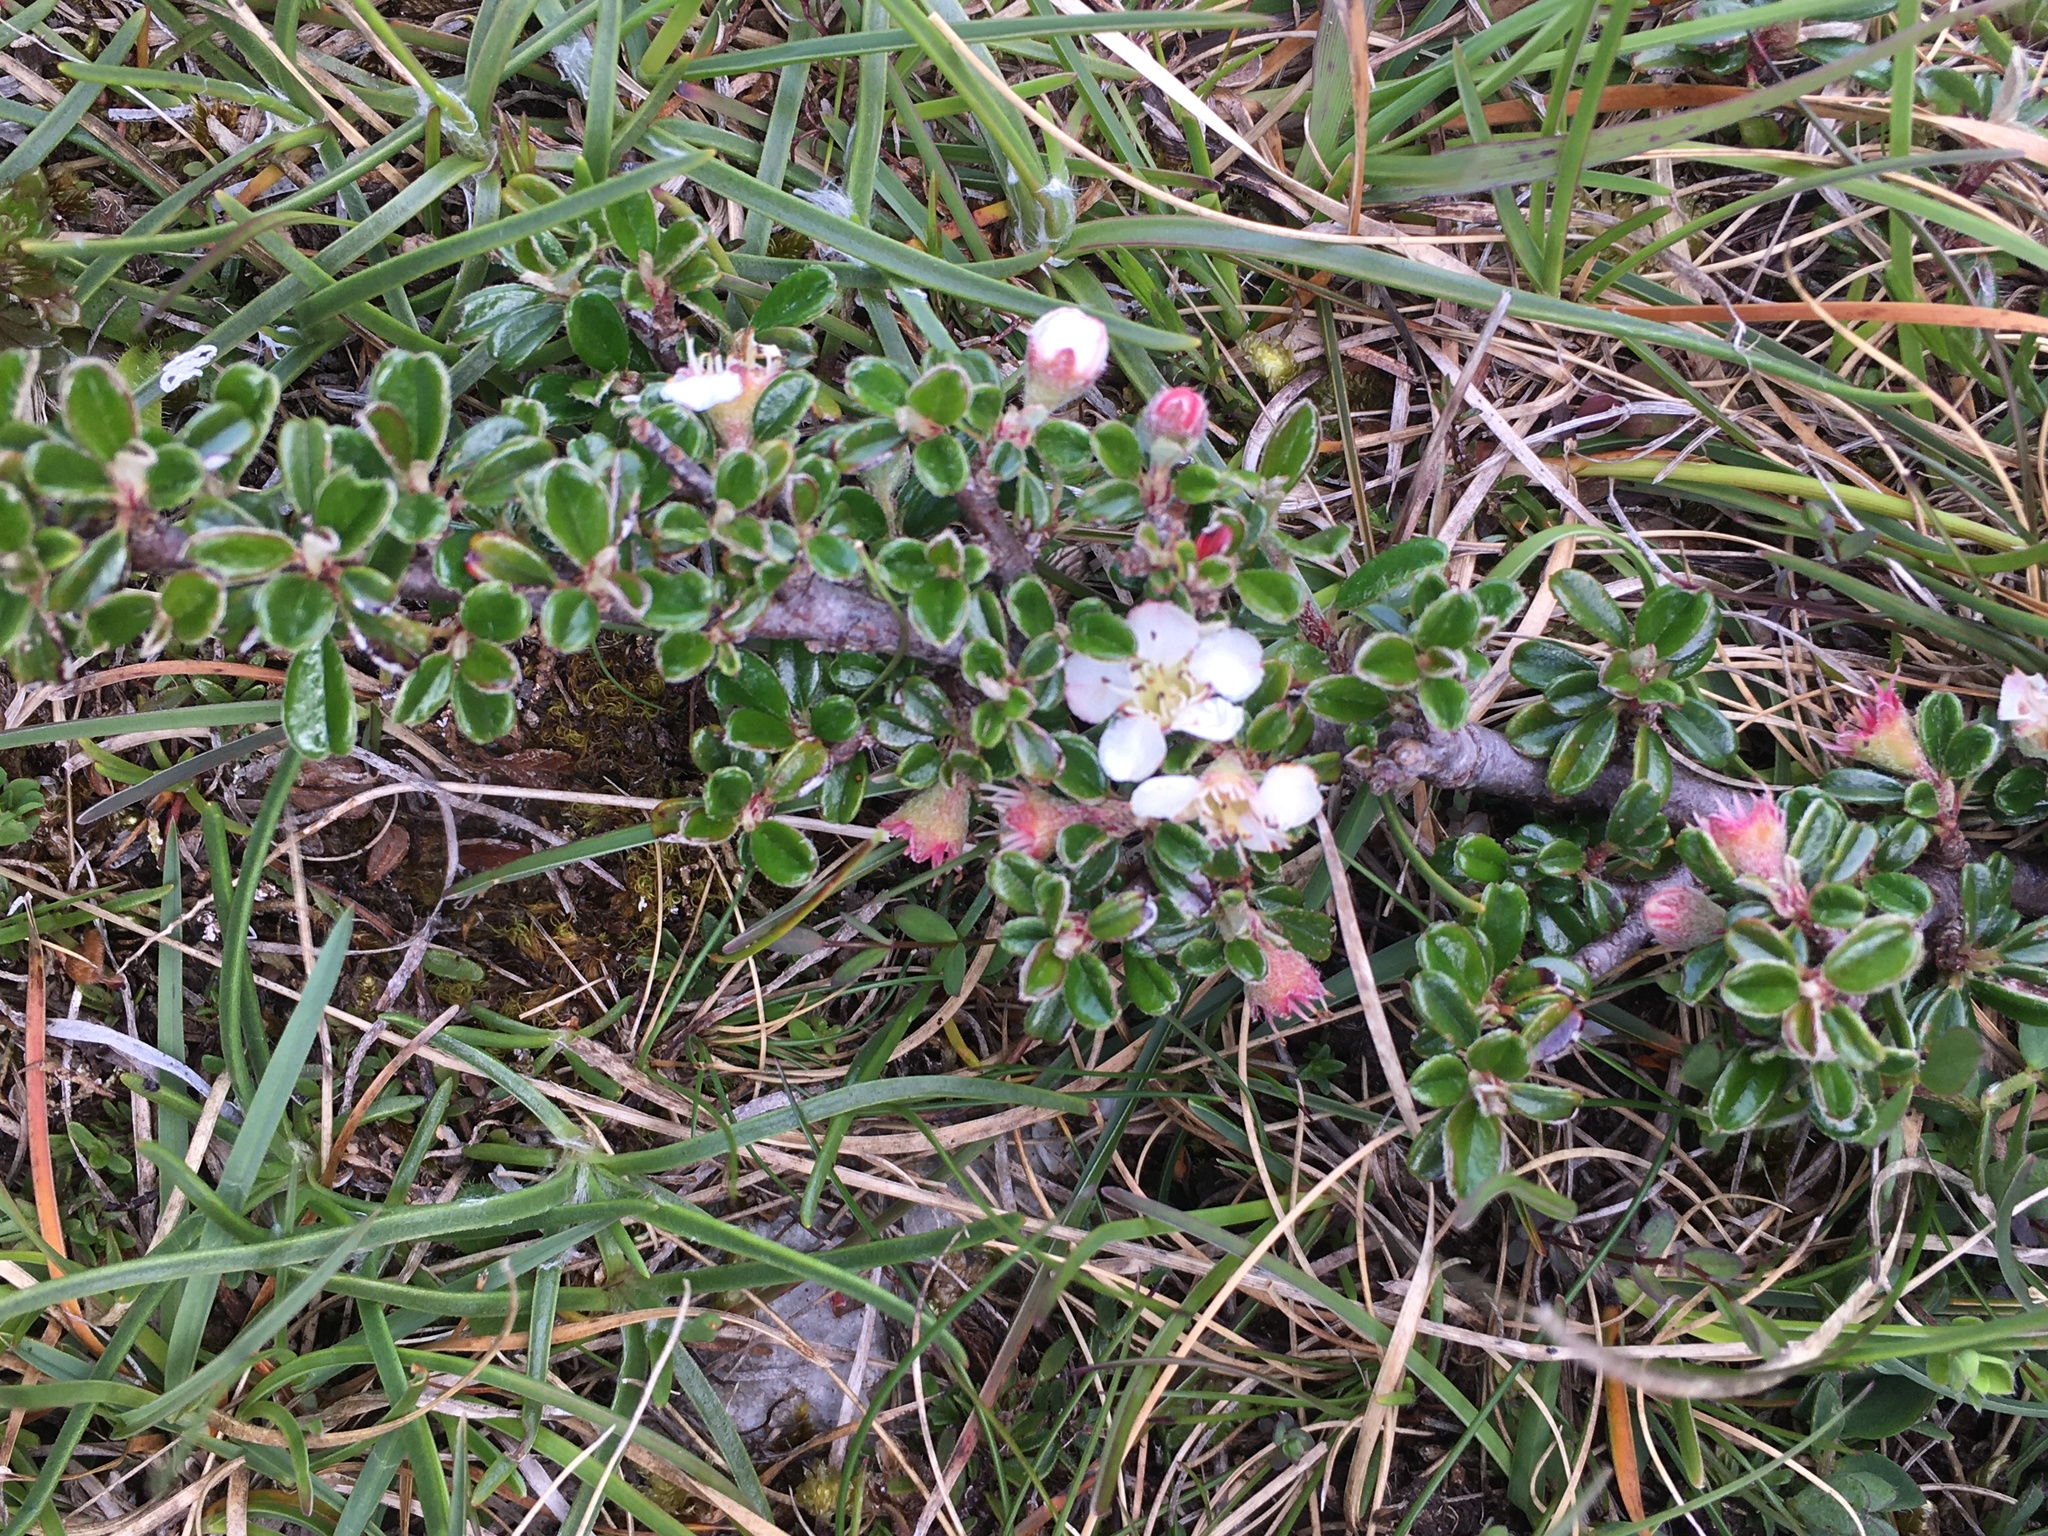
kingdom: Plantae
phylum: Tracheophyta
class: Magnoliopsida
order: Rosales
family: Rosaceae
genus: Cotoneaster
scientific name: Cotoneaster integrifolius
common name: Entire-leaved cotoneaster
